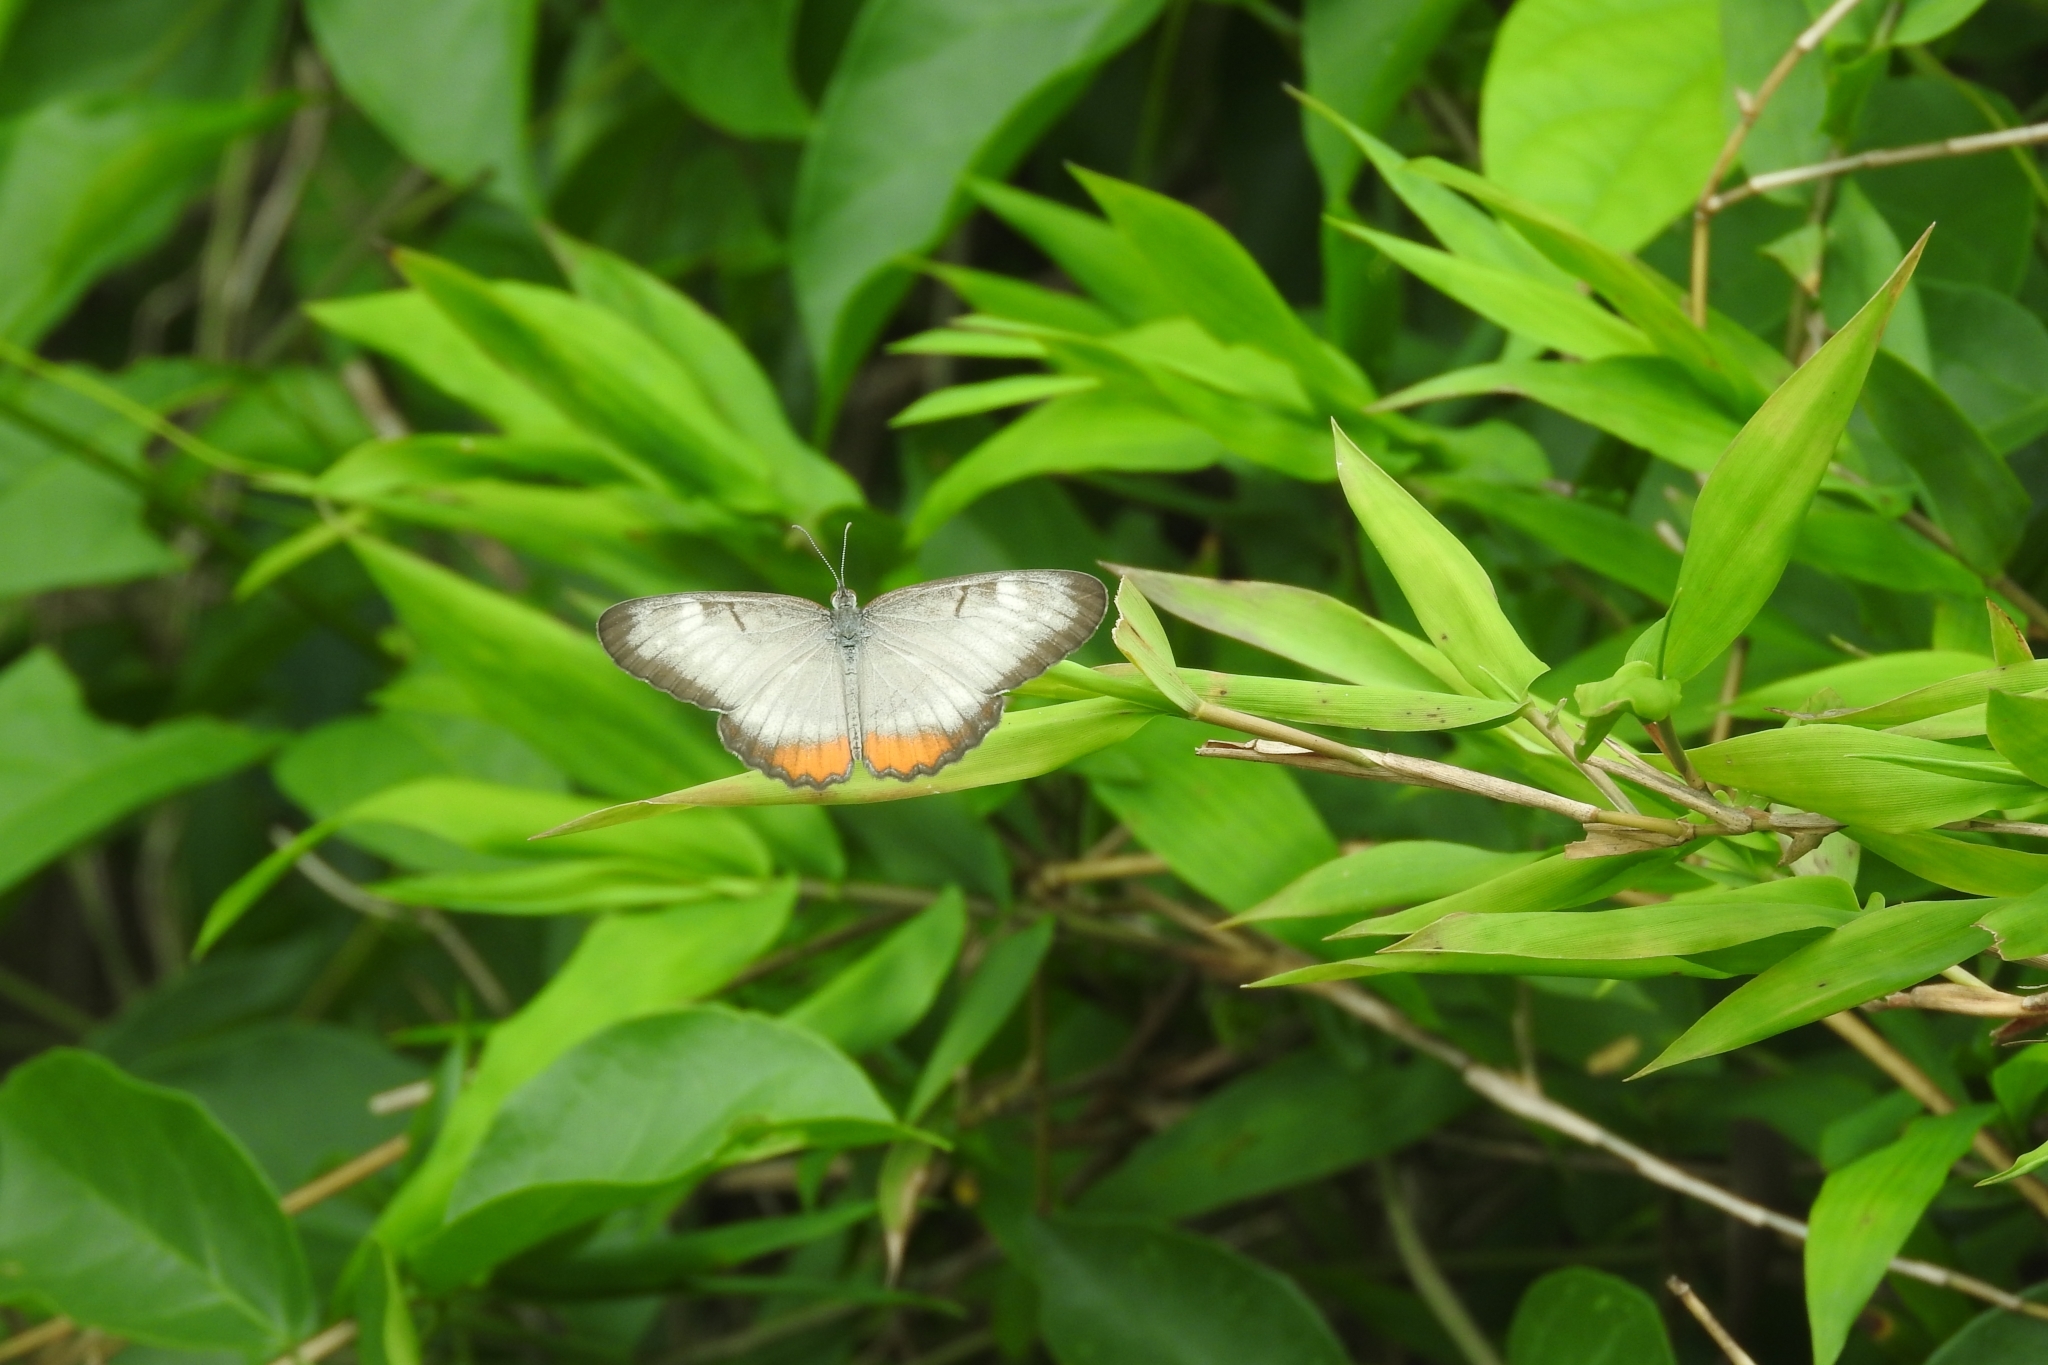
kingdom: Animalia
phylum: Arthropoda
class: Insecta
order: Lepidoptera
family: Nymphalidae
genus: Mestra
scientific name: Mestra amymone
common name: Common mestra
